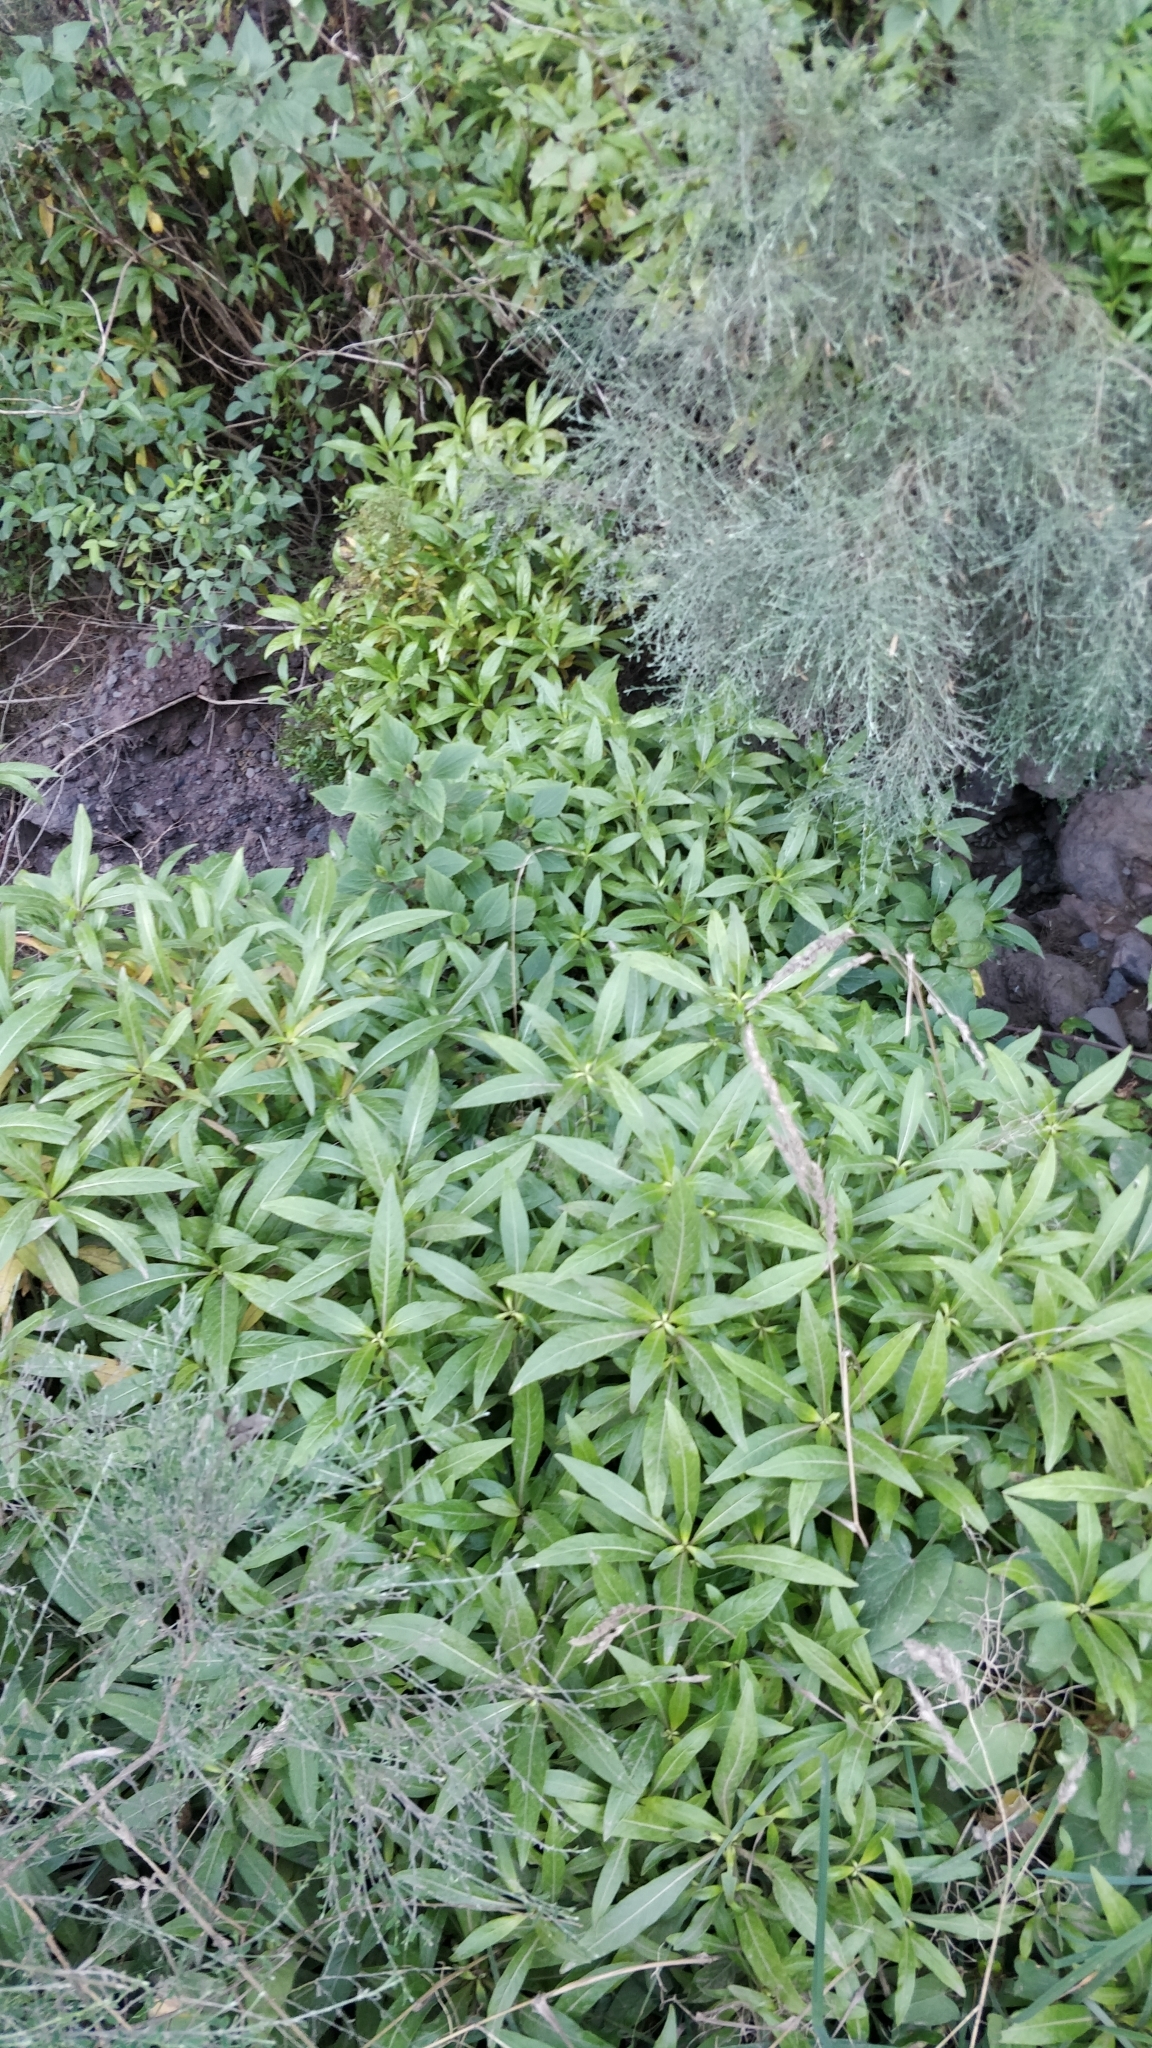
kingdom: Plantae
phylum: Tracheophyta
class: Magnoliopsida
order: Gentianales
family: Rubiaceae
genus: Phyllis
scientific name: Phyllis nobla
